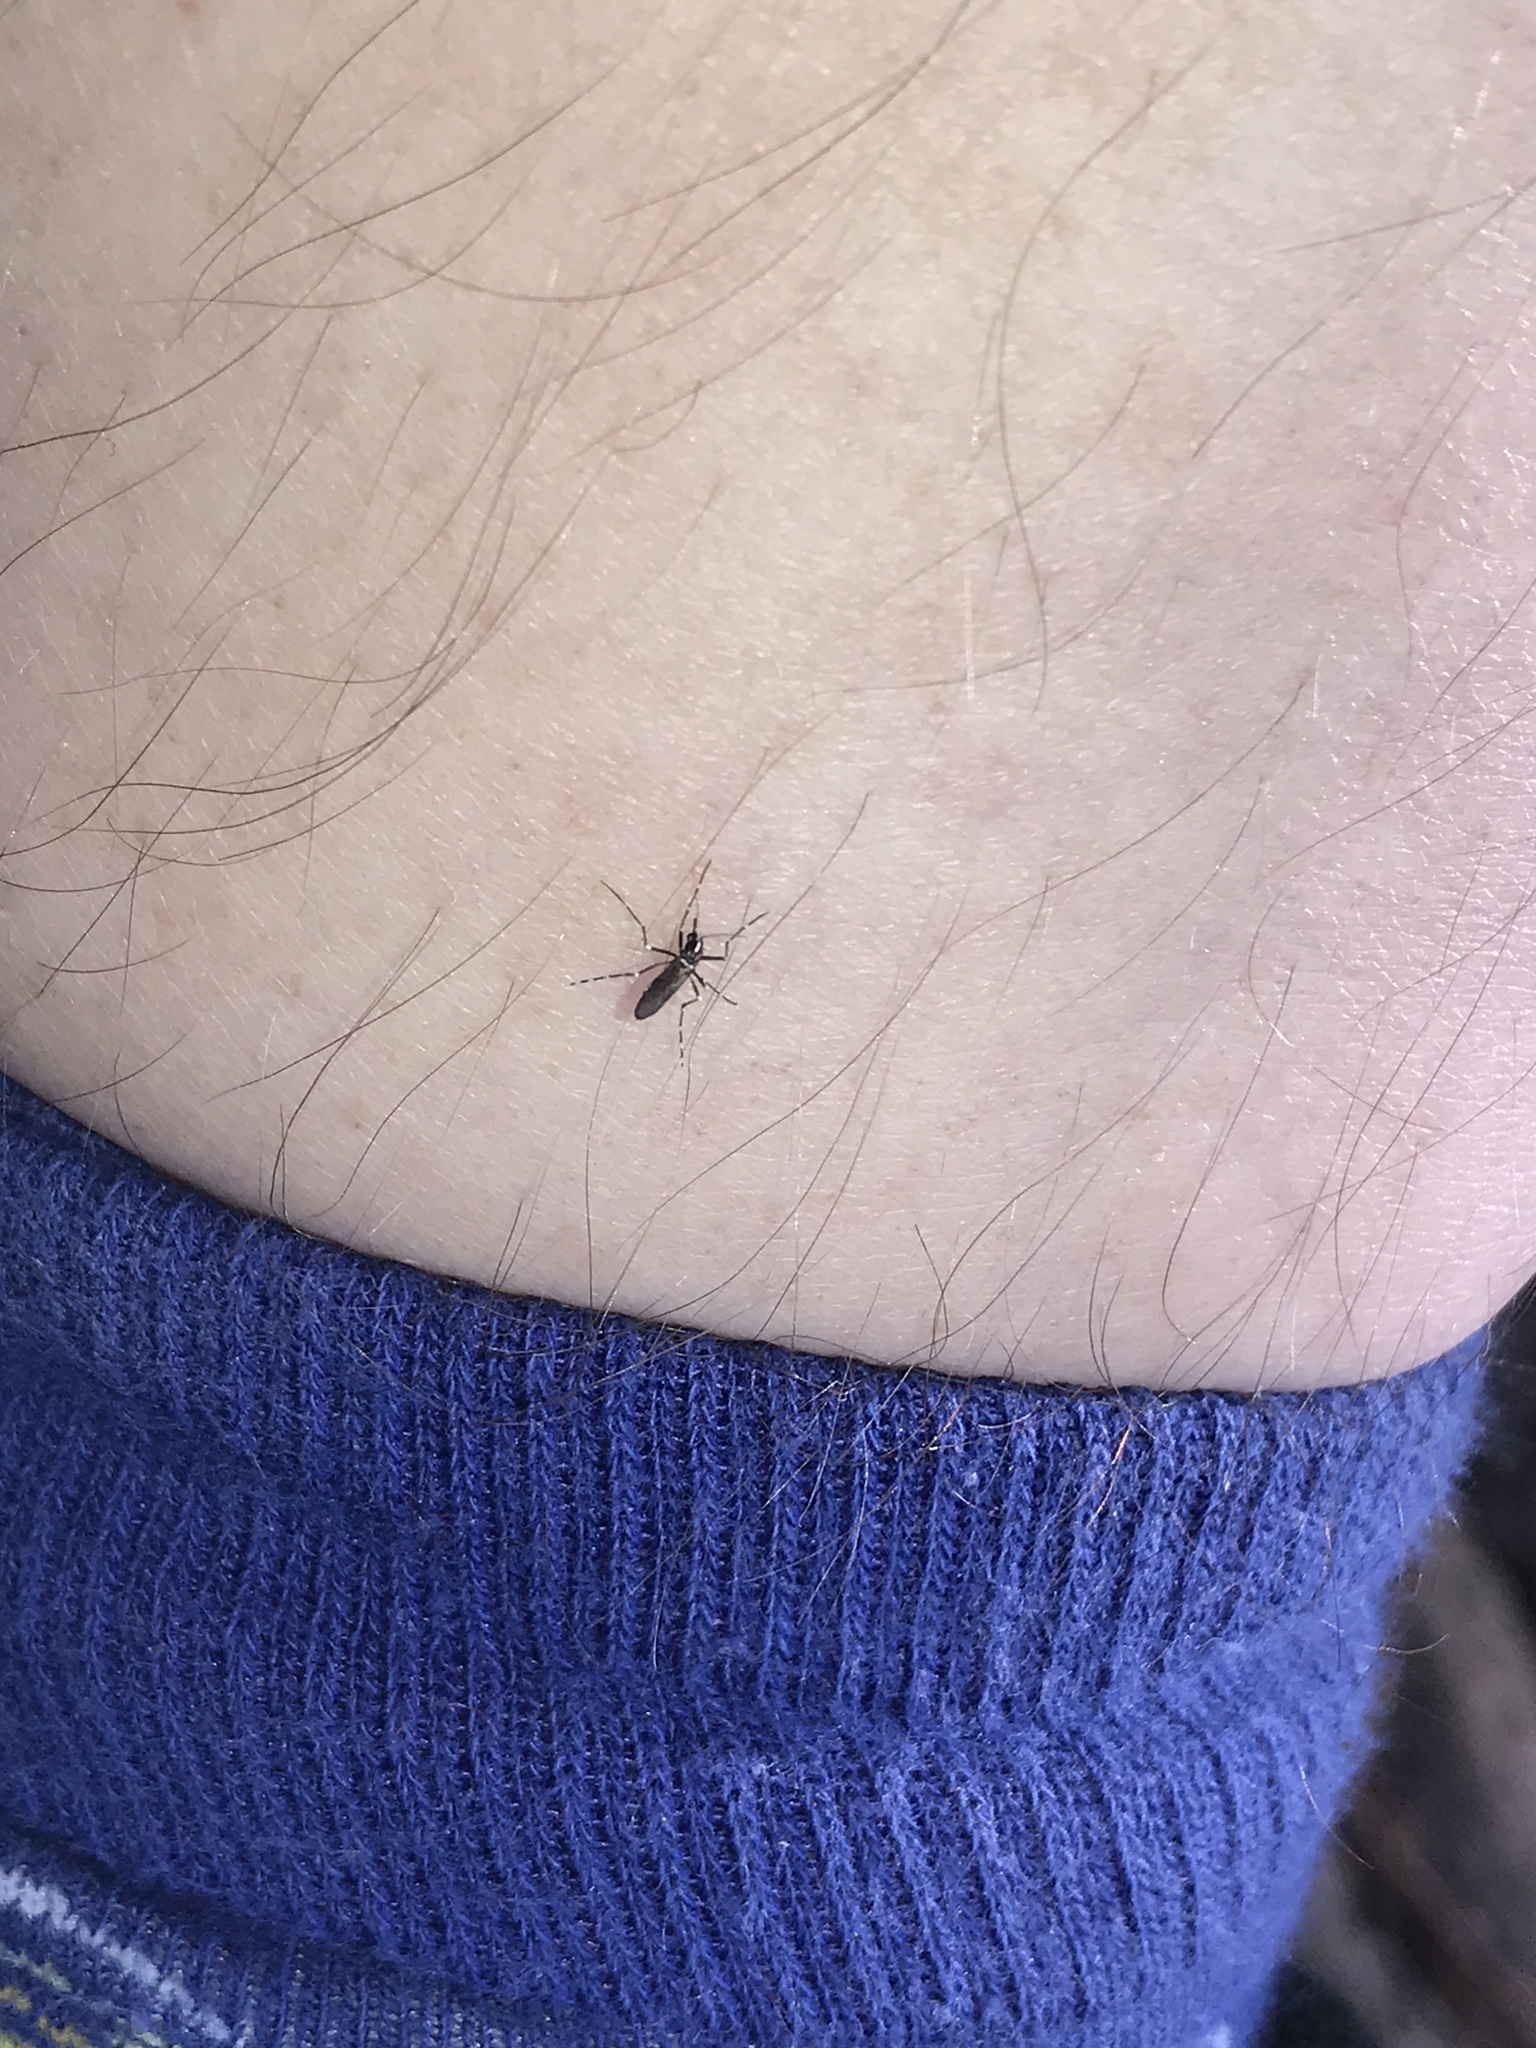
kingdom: Animalia
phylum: Arthropoda
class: Insecta
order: Diptera
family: Culicidae
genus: Aedes
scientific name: Aedes albopictus
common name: Tiger mosquito
